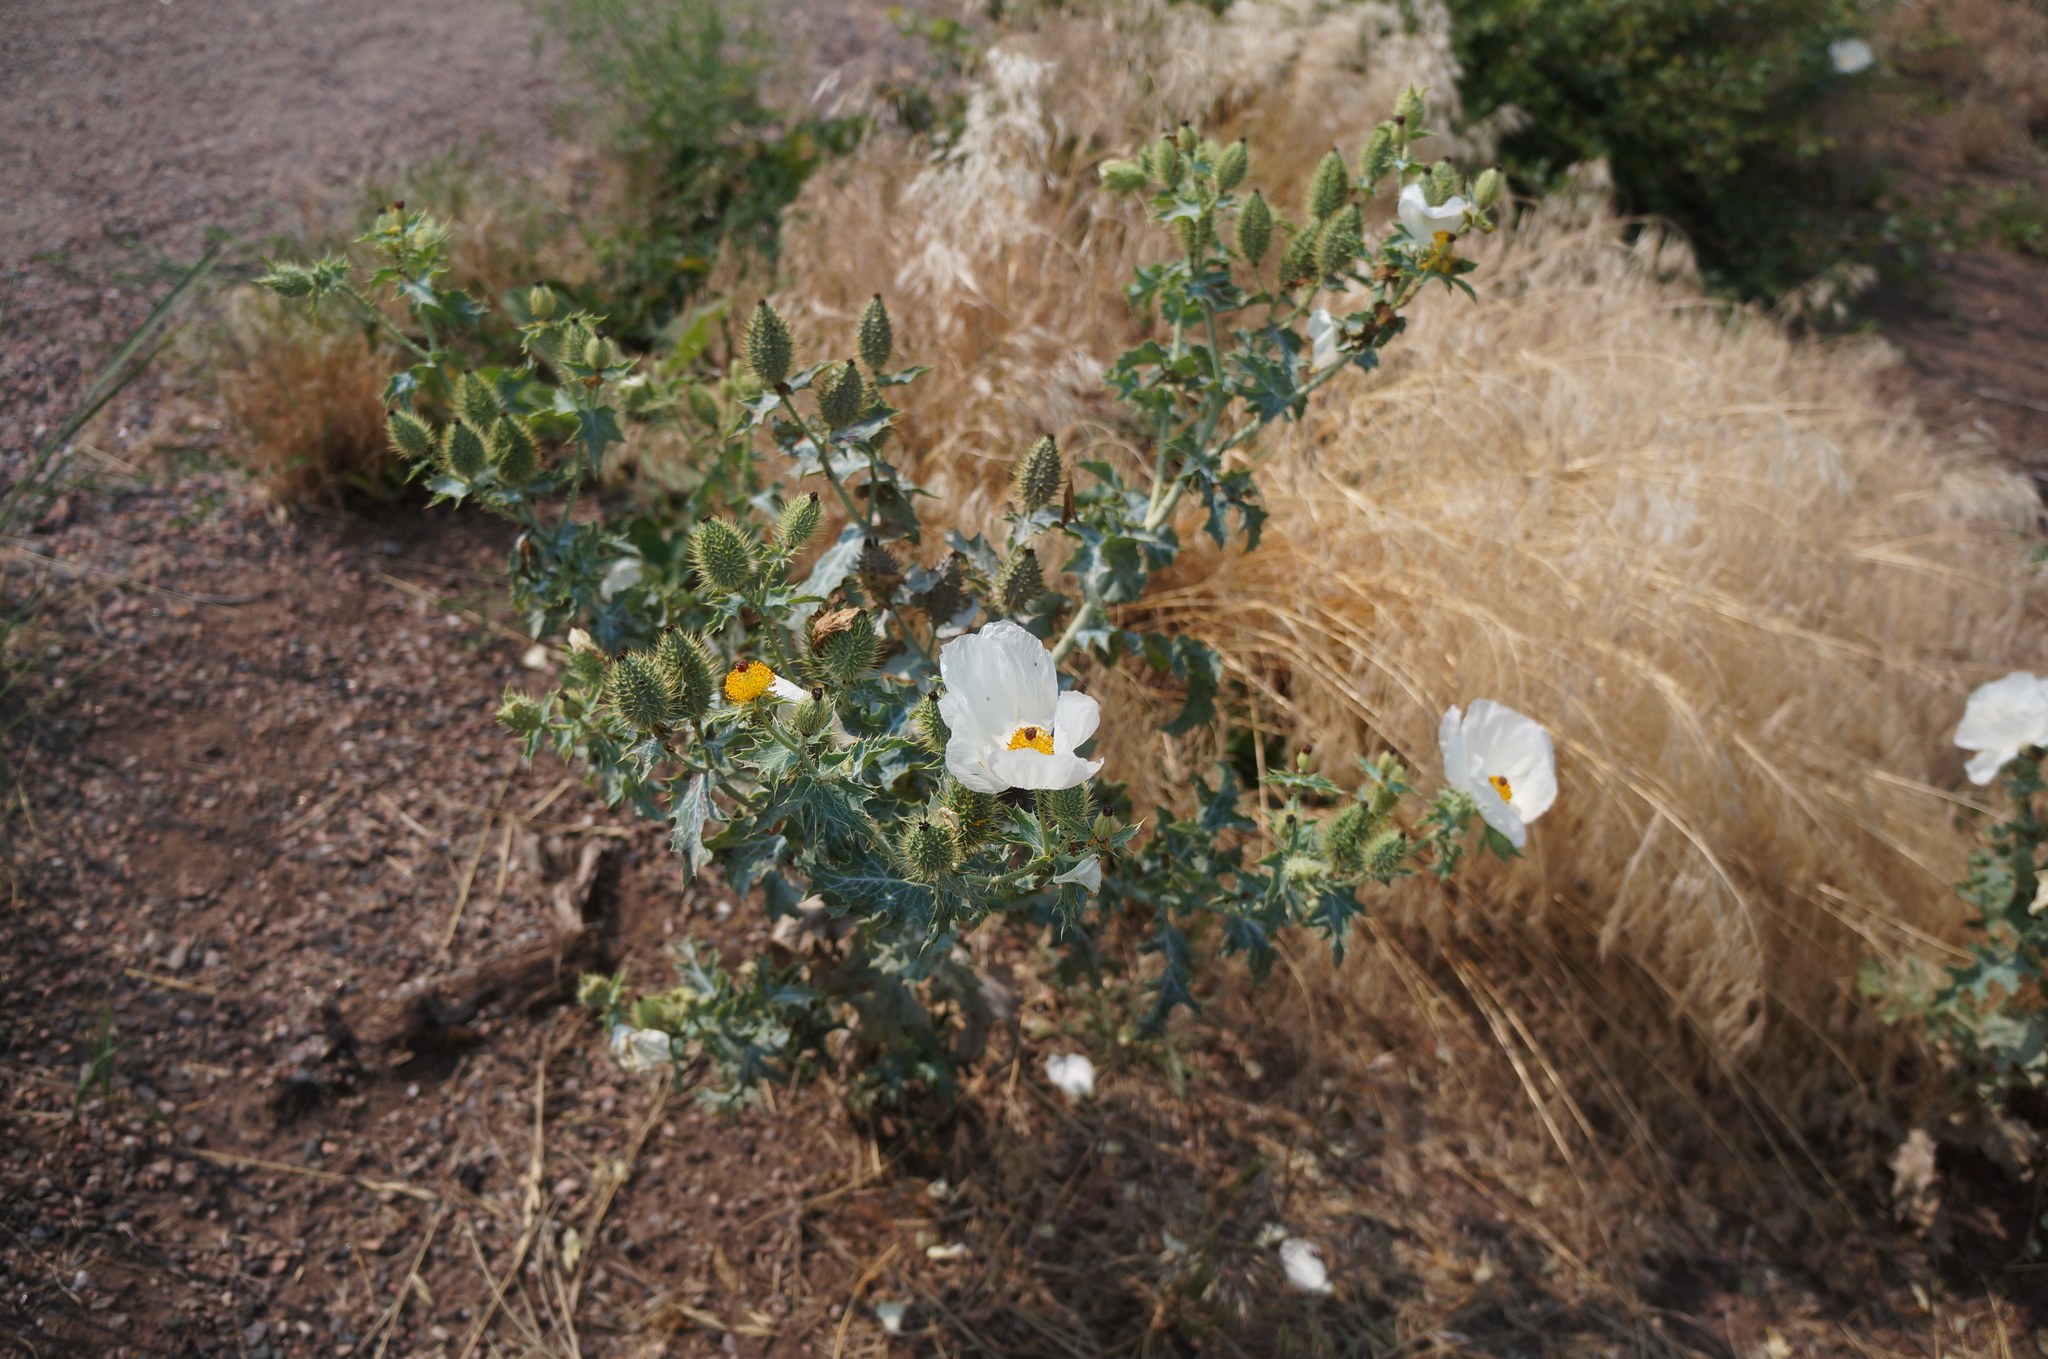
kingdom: Plantae
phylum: Tracheophyta
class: Magnoliopsida
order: Ranunculales
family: Papaveraceae
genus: Argemone
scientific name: Argemone polyanthemos
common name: Plains prickly-poppy
